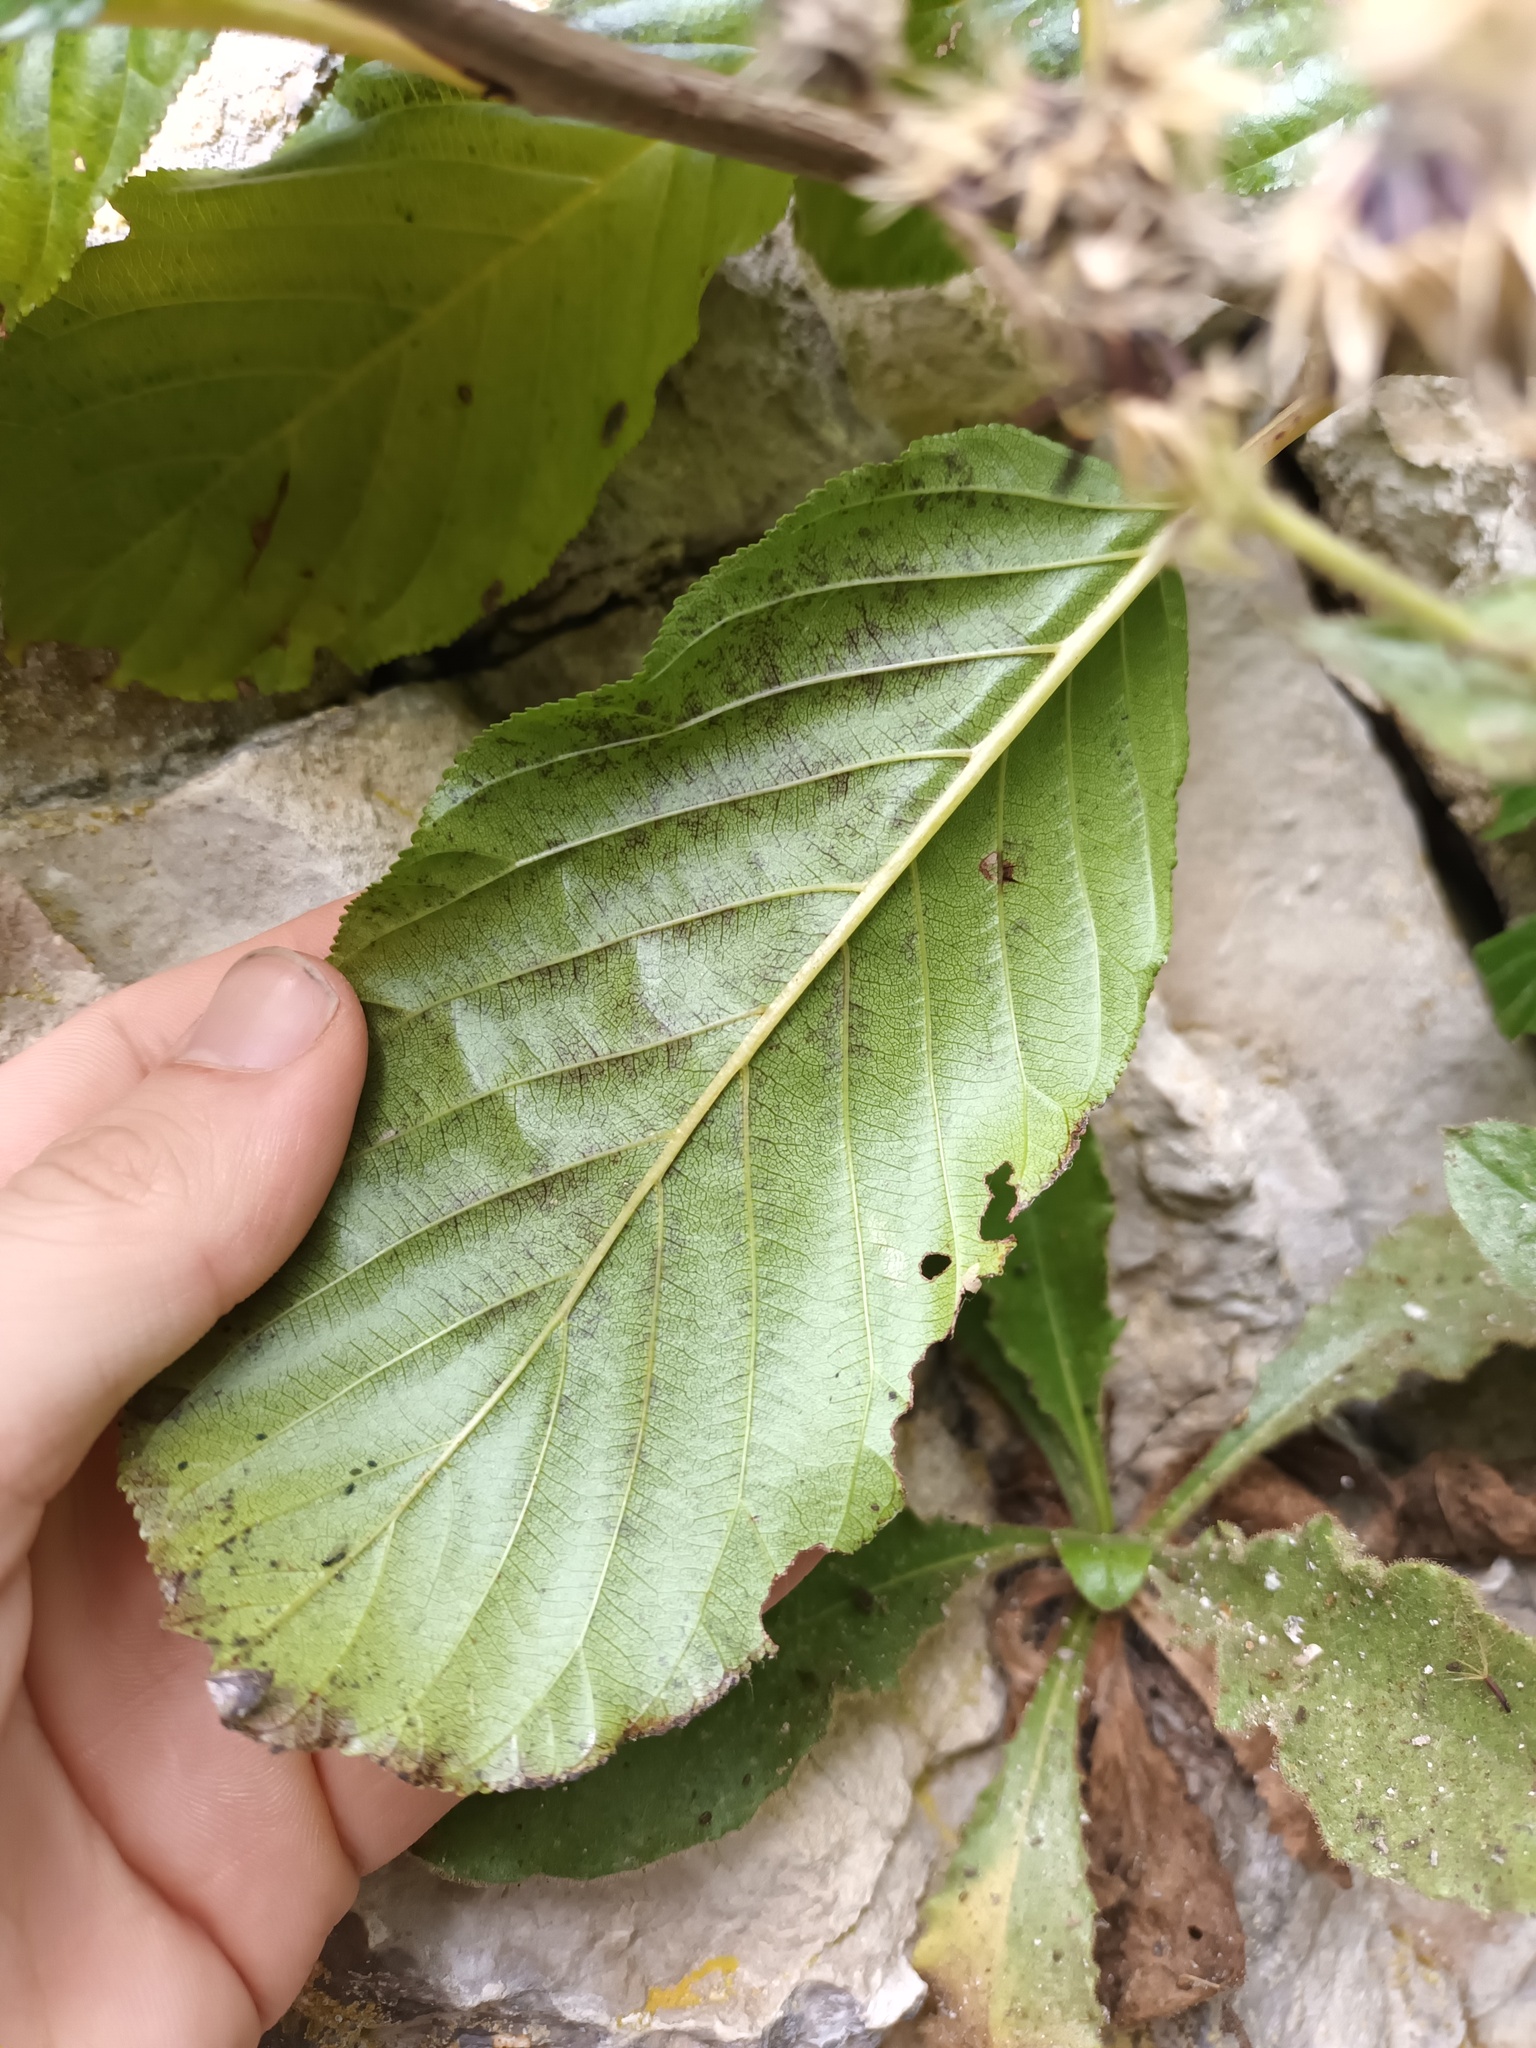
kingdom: Plantae
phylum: Tracheophyta
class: Magnoliopsida
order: Rosales
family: Rhamnaceae
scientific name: Rhamnaceae
